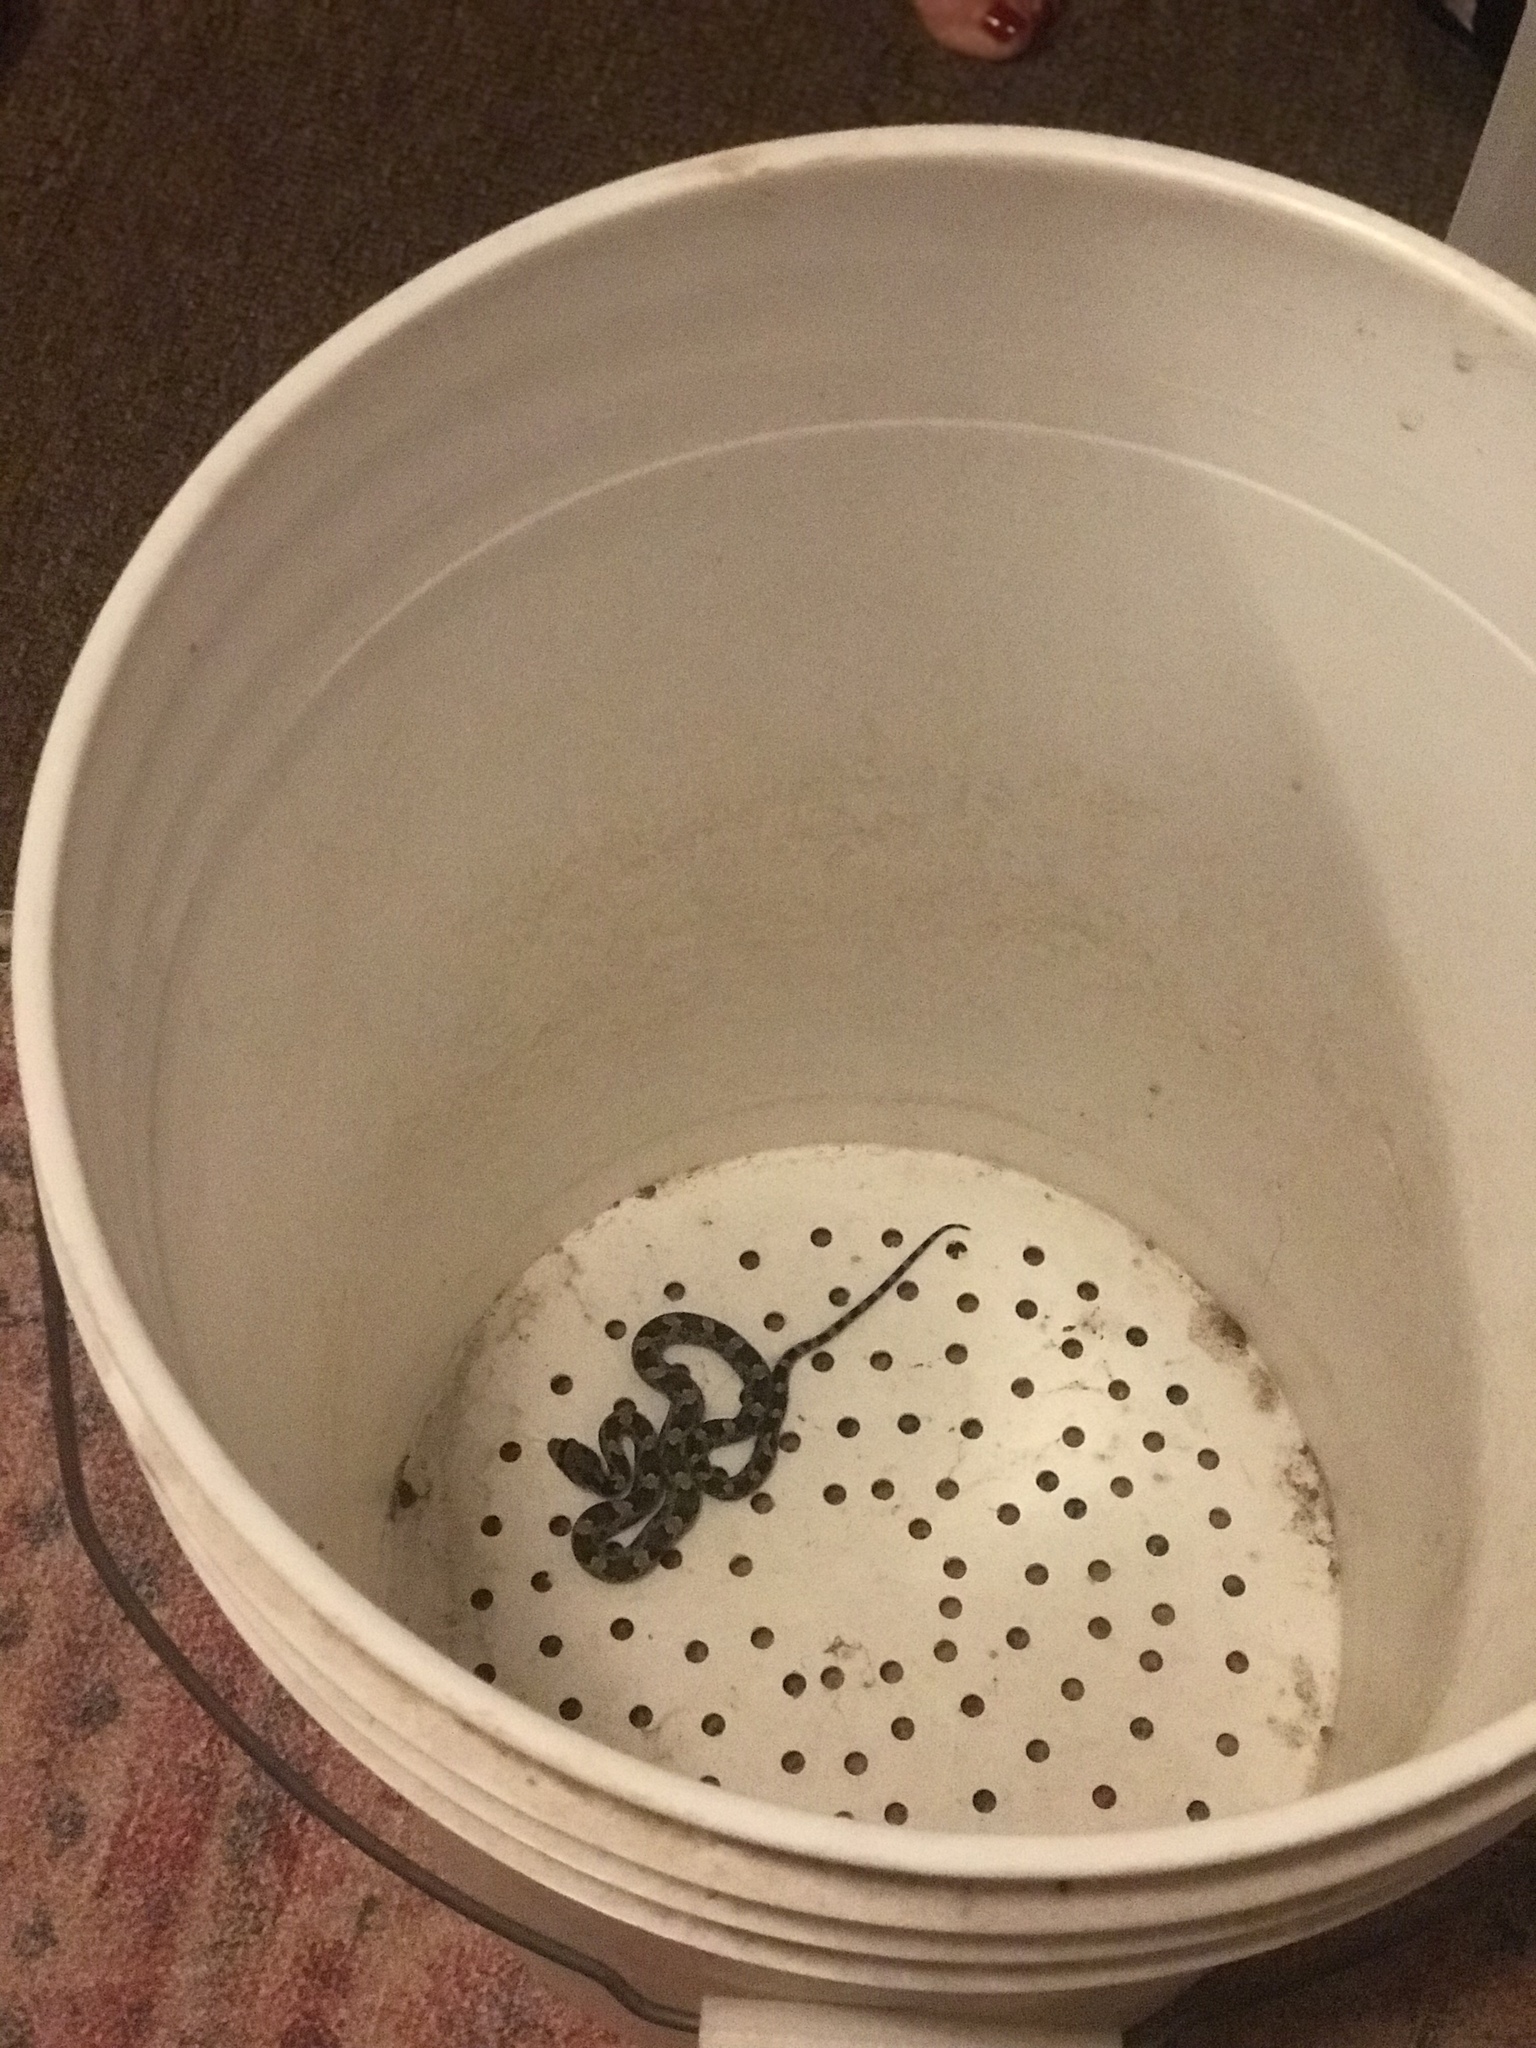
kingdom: Animalia
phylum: Chordata
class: Squamata
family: Colubridae
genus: Pantherophis
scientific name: Pantherophis obsoletus
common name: Black rat snake
